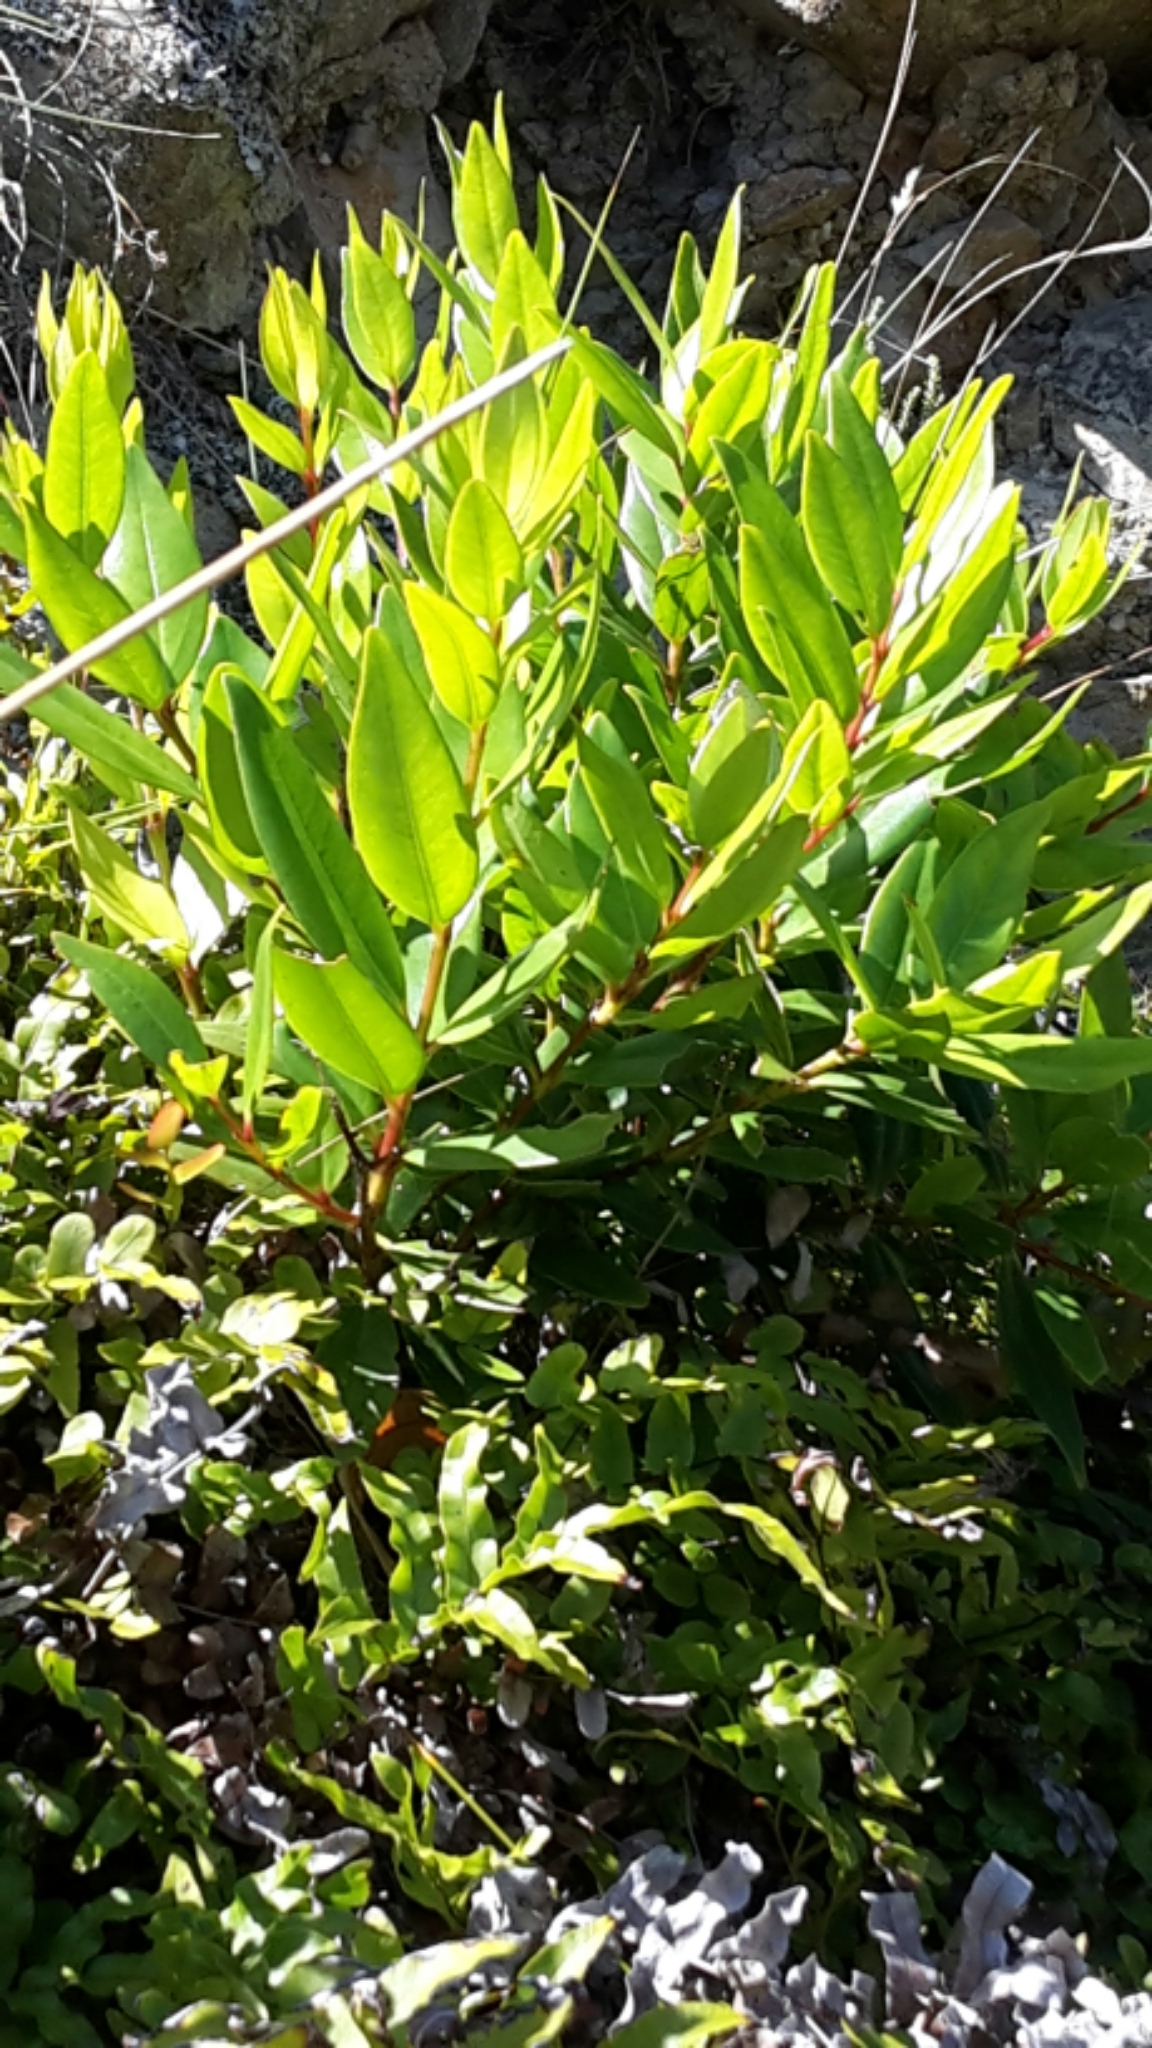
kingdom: Plantae
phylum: Tracheophyta
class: Magnoliopsida
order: Myrtales
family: Myrtaceae
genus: Metrosideros
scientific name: Metrosideros excelsa
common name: New zealand christmastree
